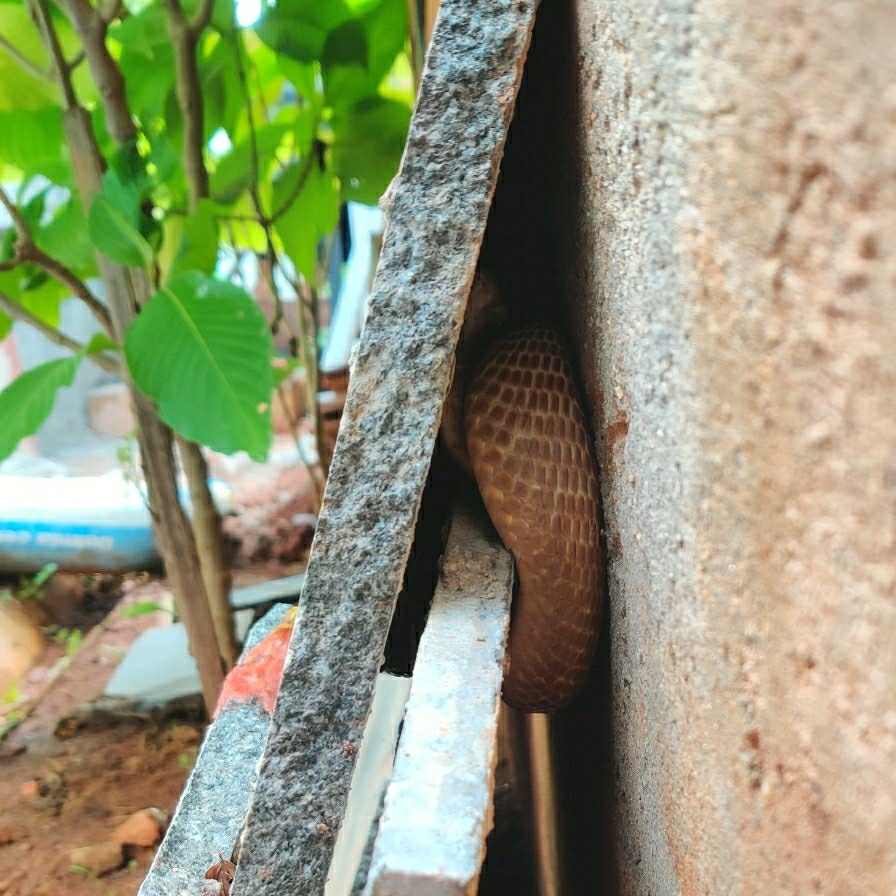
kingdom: Animalia
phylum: Chordata
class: Squamata
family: Elapidae
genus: Naja
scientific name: Naja naja
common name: Indian cobra
